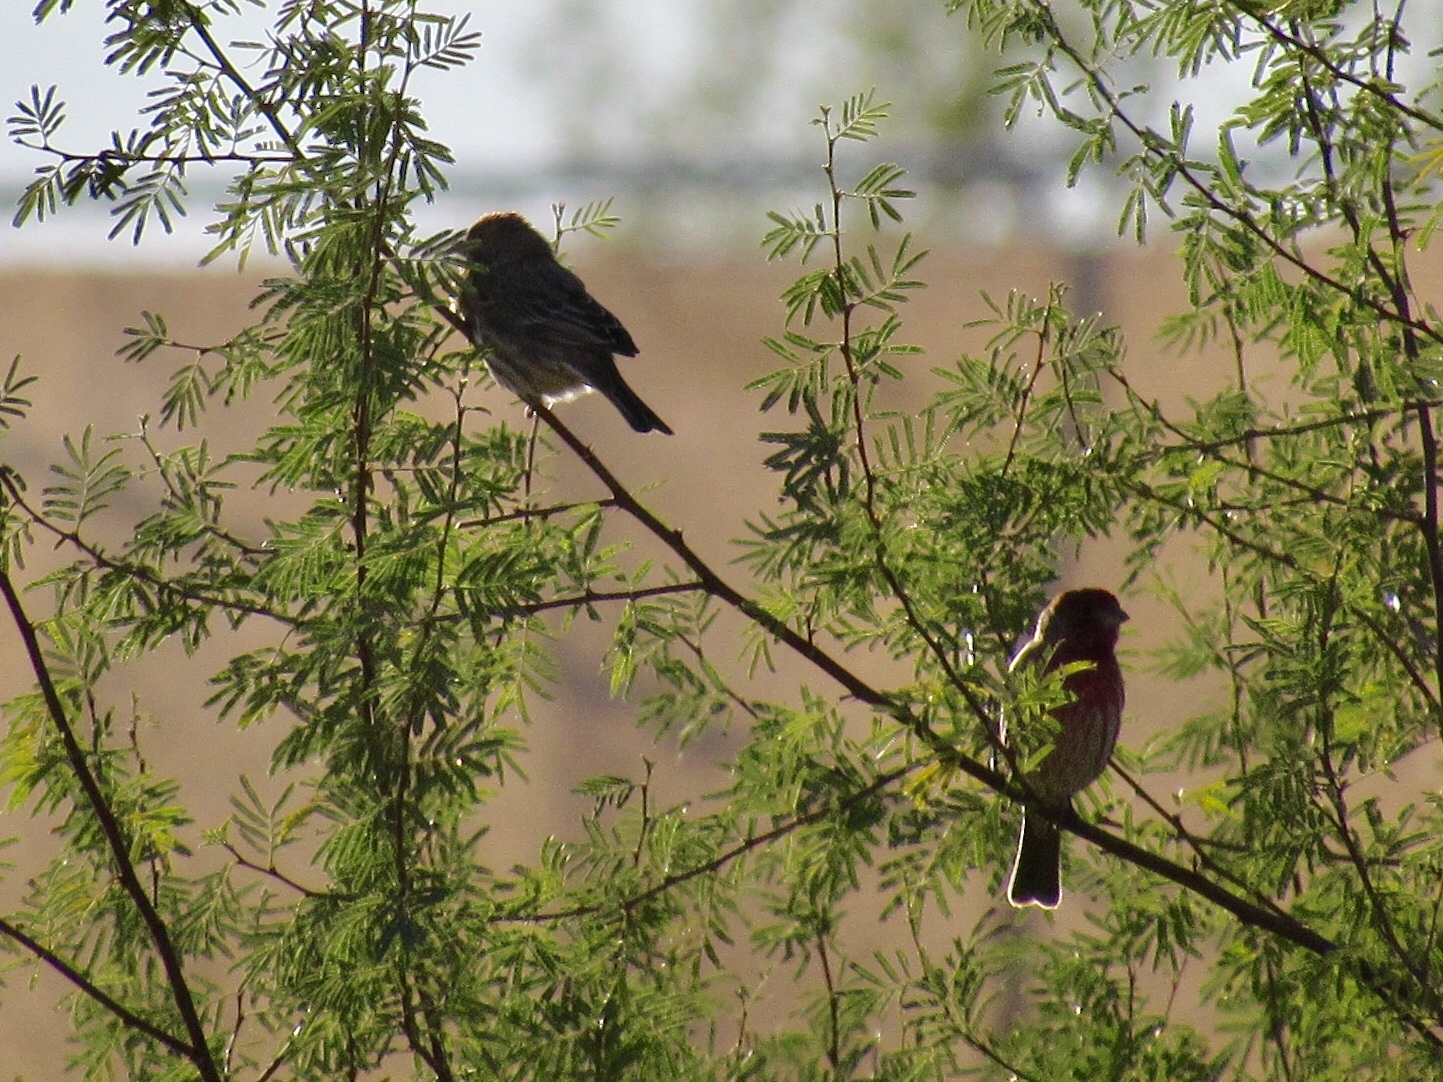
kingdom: Animalia
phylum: Chordata
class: Aves
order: Passeriformes
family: Fringillidae
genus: Haemorhous
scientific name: Haemorhous mexicanus
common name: House finch
